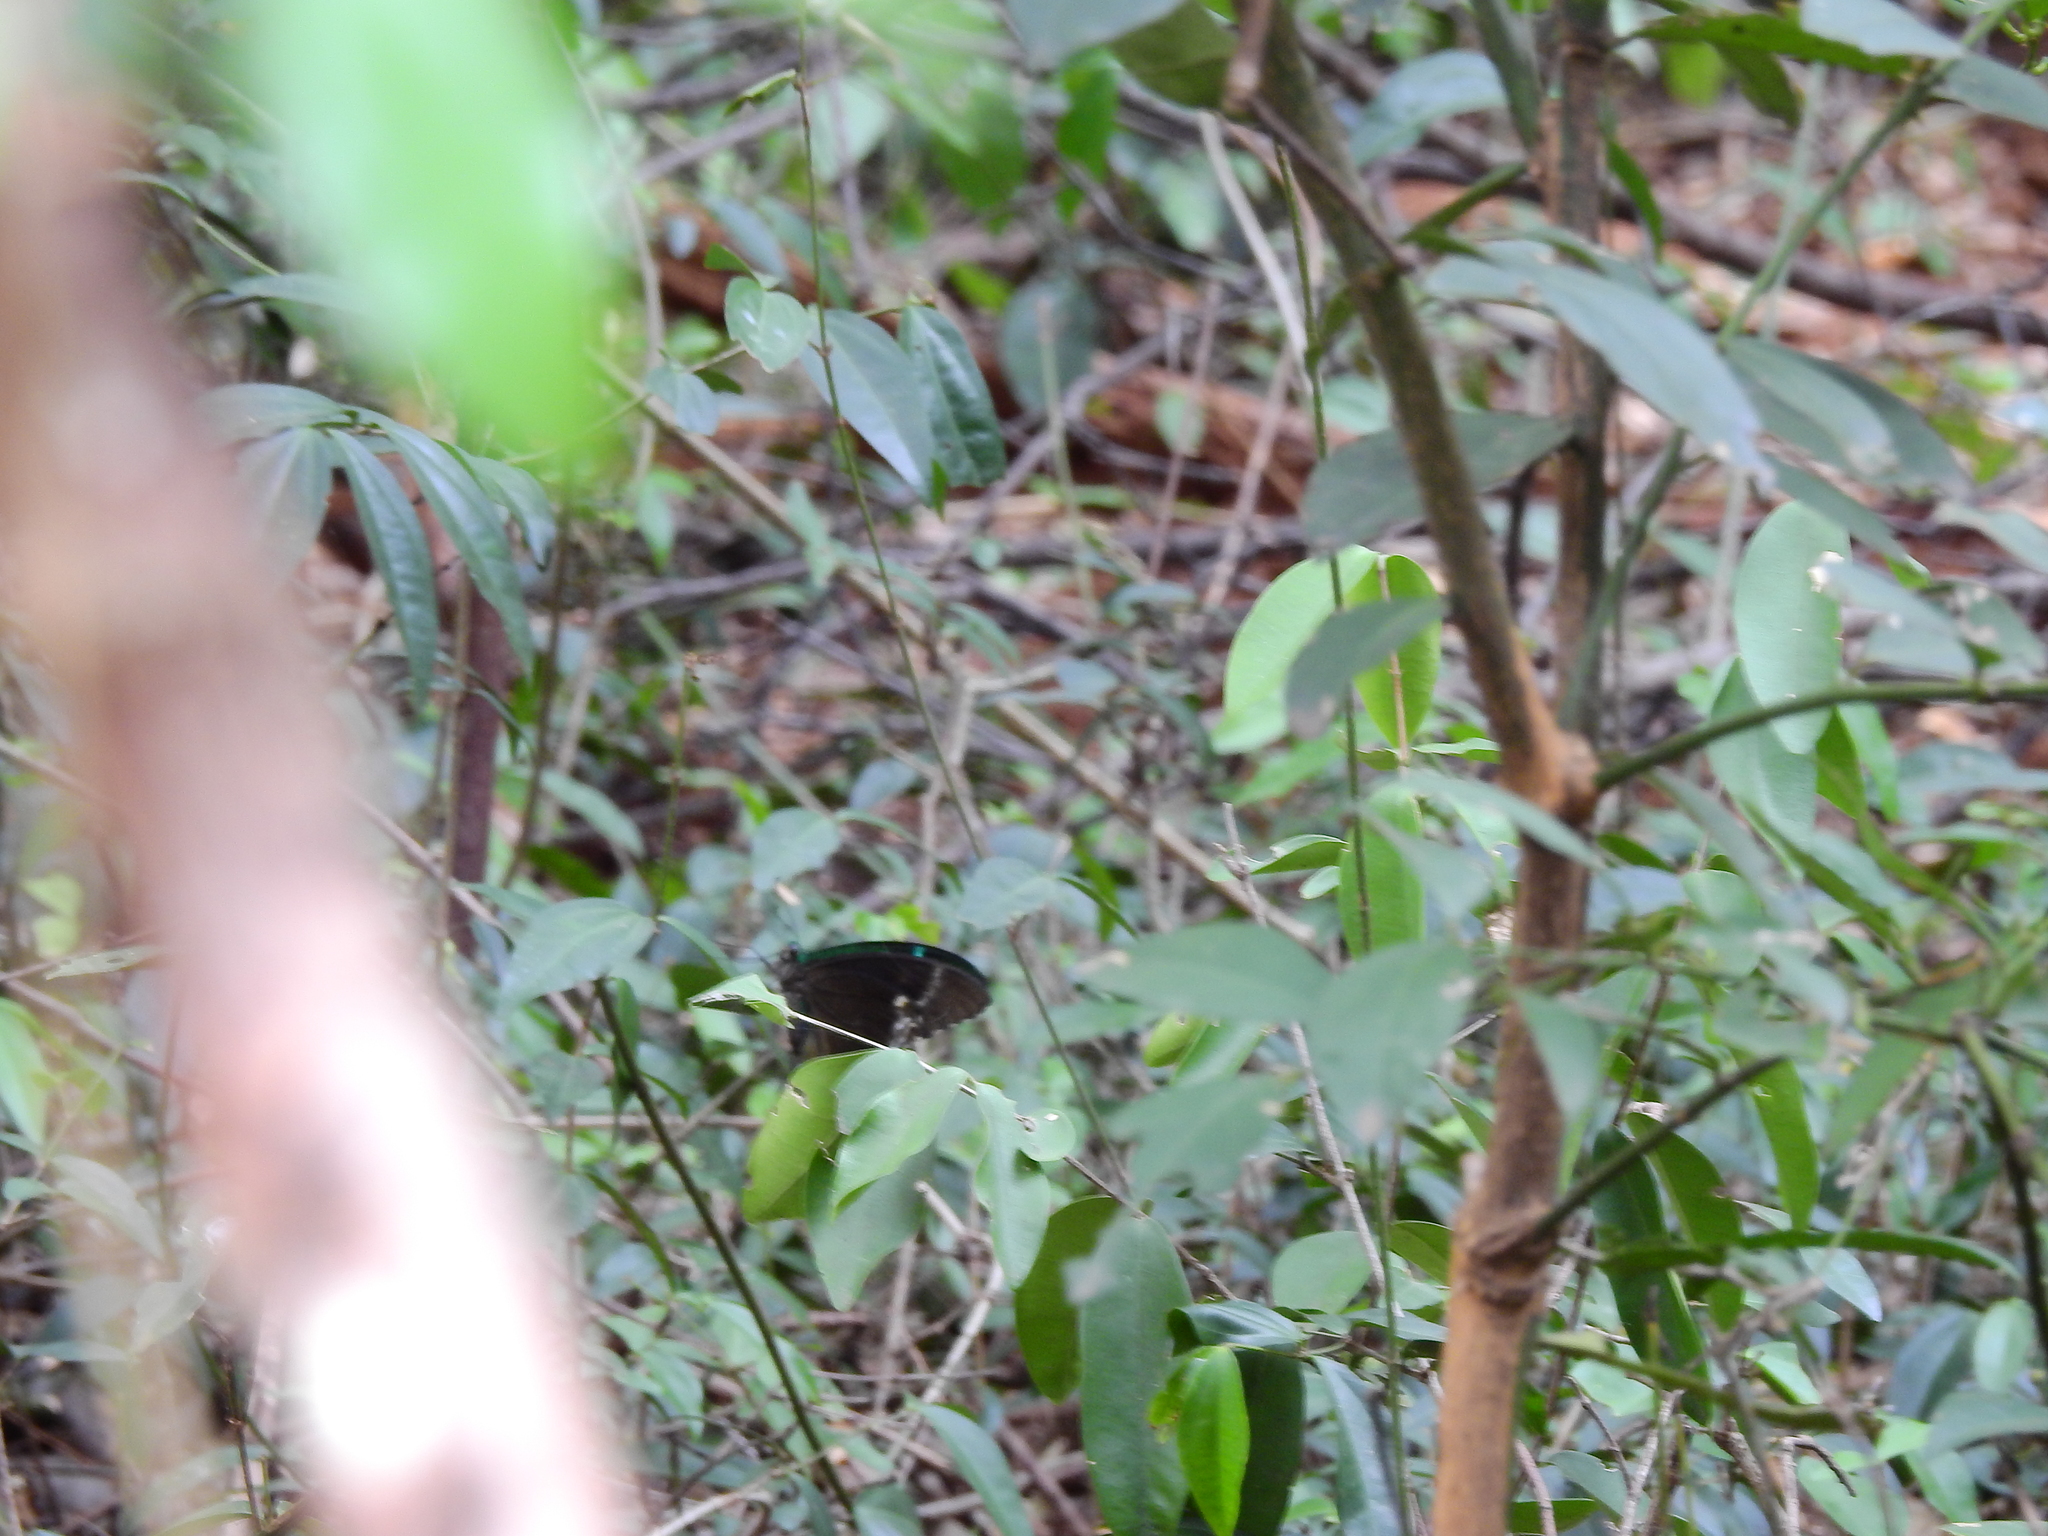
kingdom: Animalia
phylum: Arthropoda
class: Insecta
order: Lepidoptera
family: Papilionidae
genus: Papilio
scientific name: Papilio crino
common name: Common banded peacock
